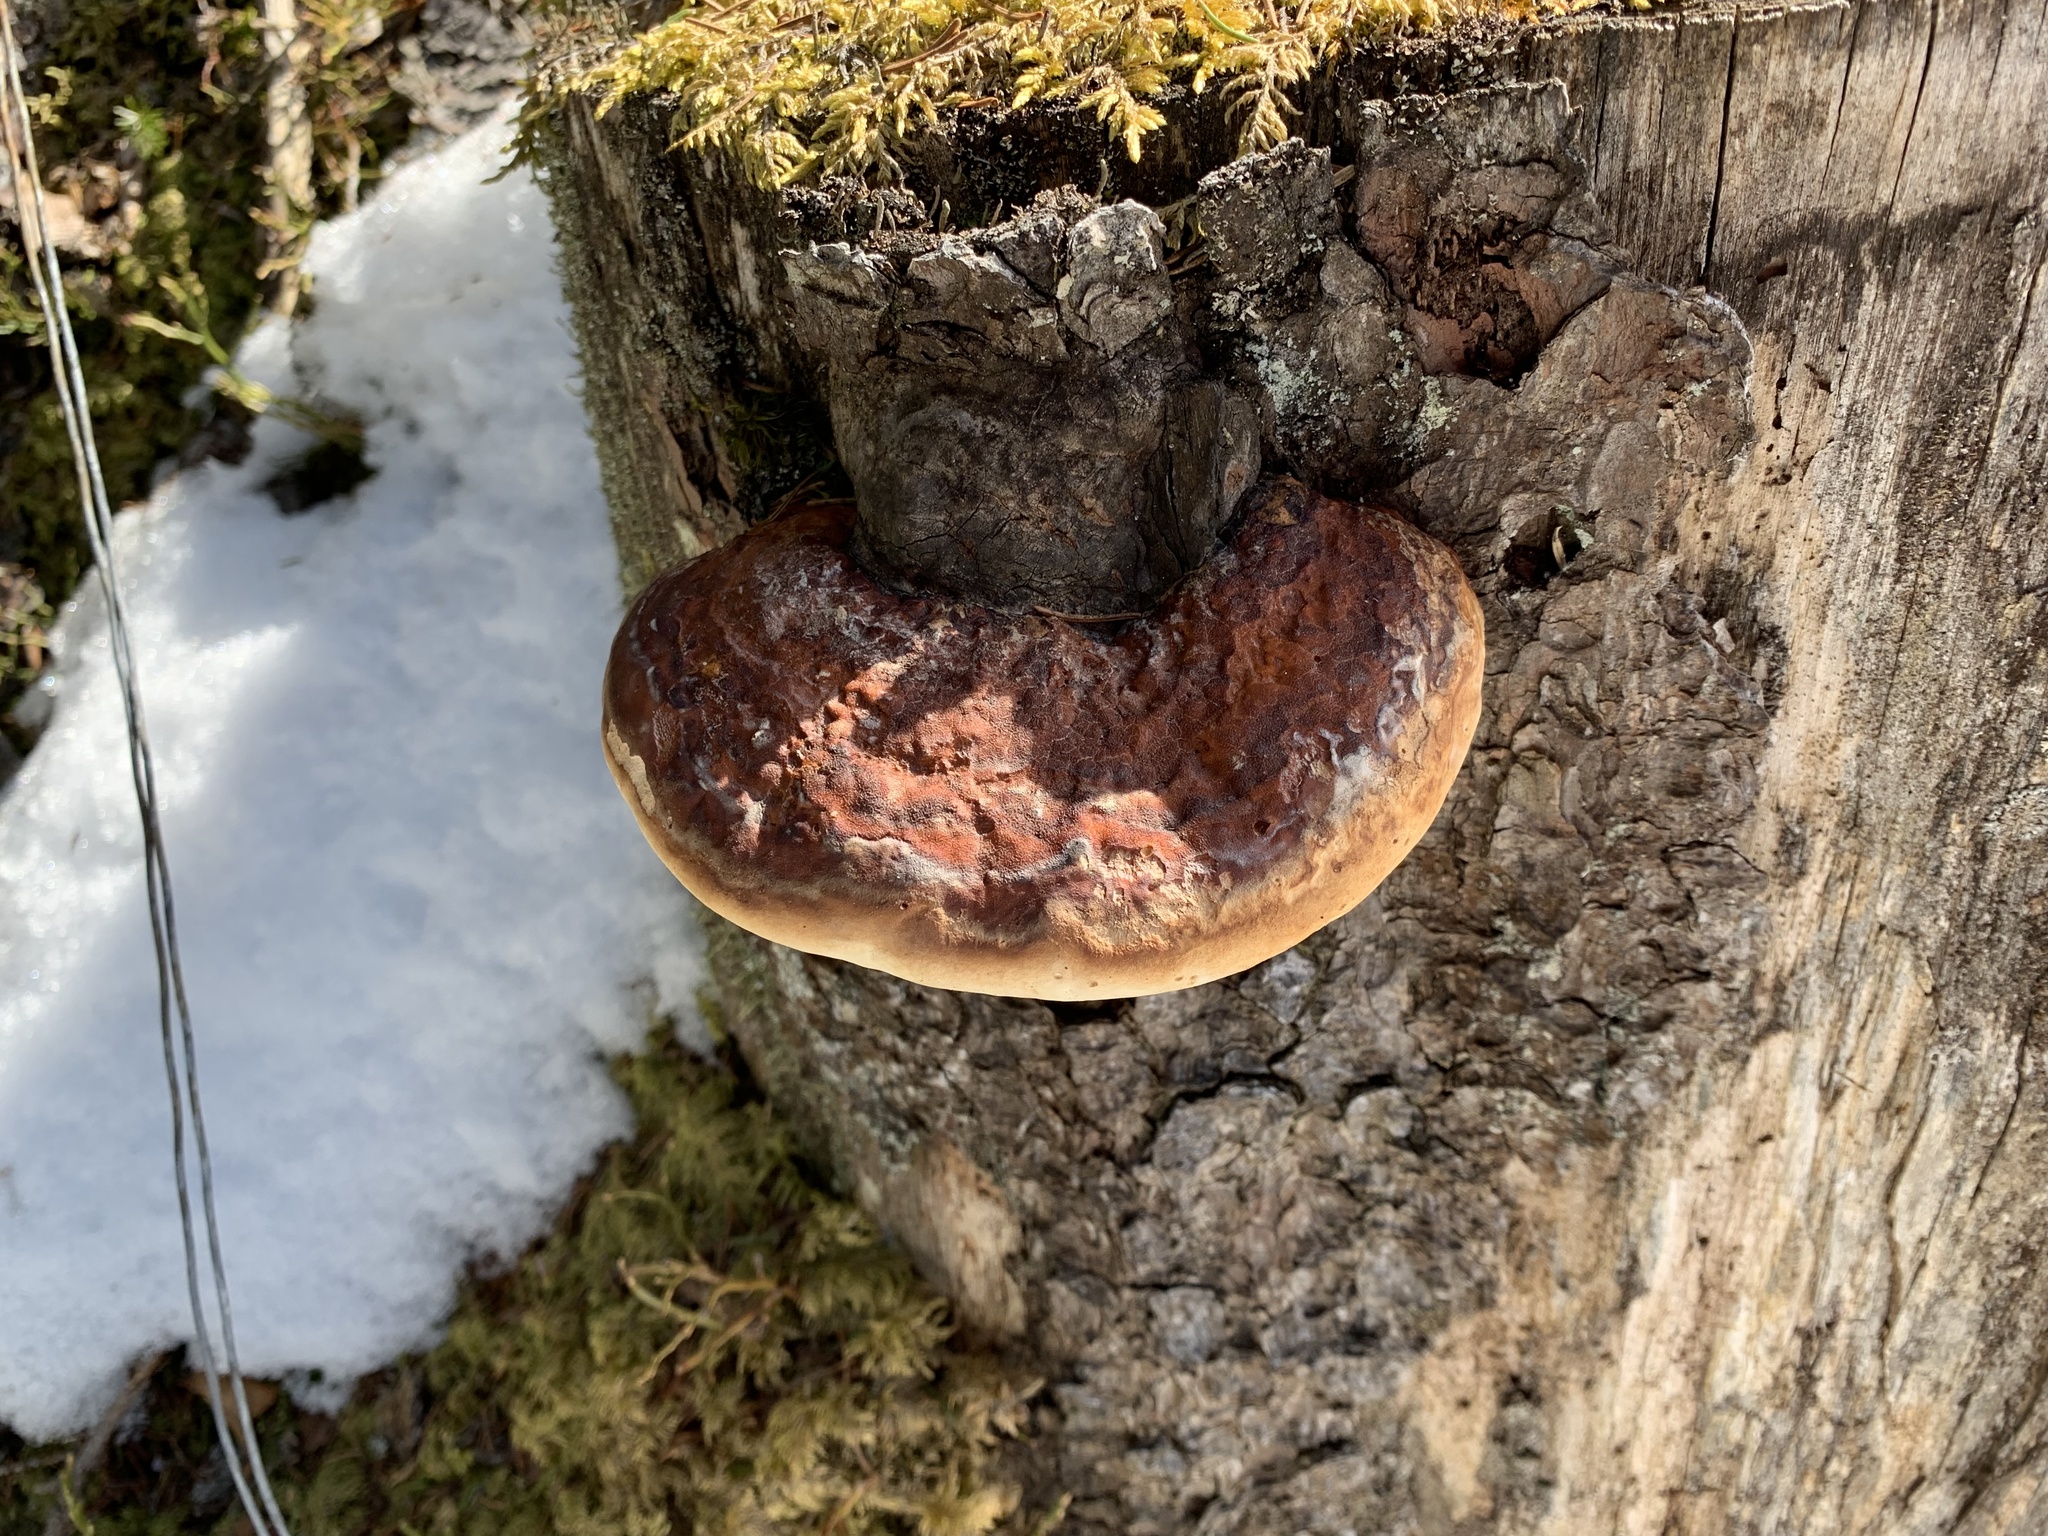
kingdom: Fungi
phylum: Basidiomycota
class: Agaricomycetes
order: Polyporales
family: Fomitopsidaceae
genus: Fomitopsis
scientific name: Fomitopsis pinicola
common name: Red-belted bracket
